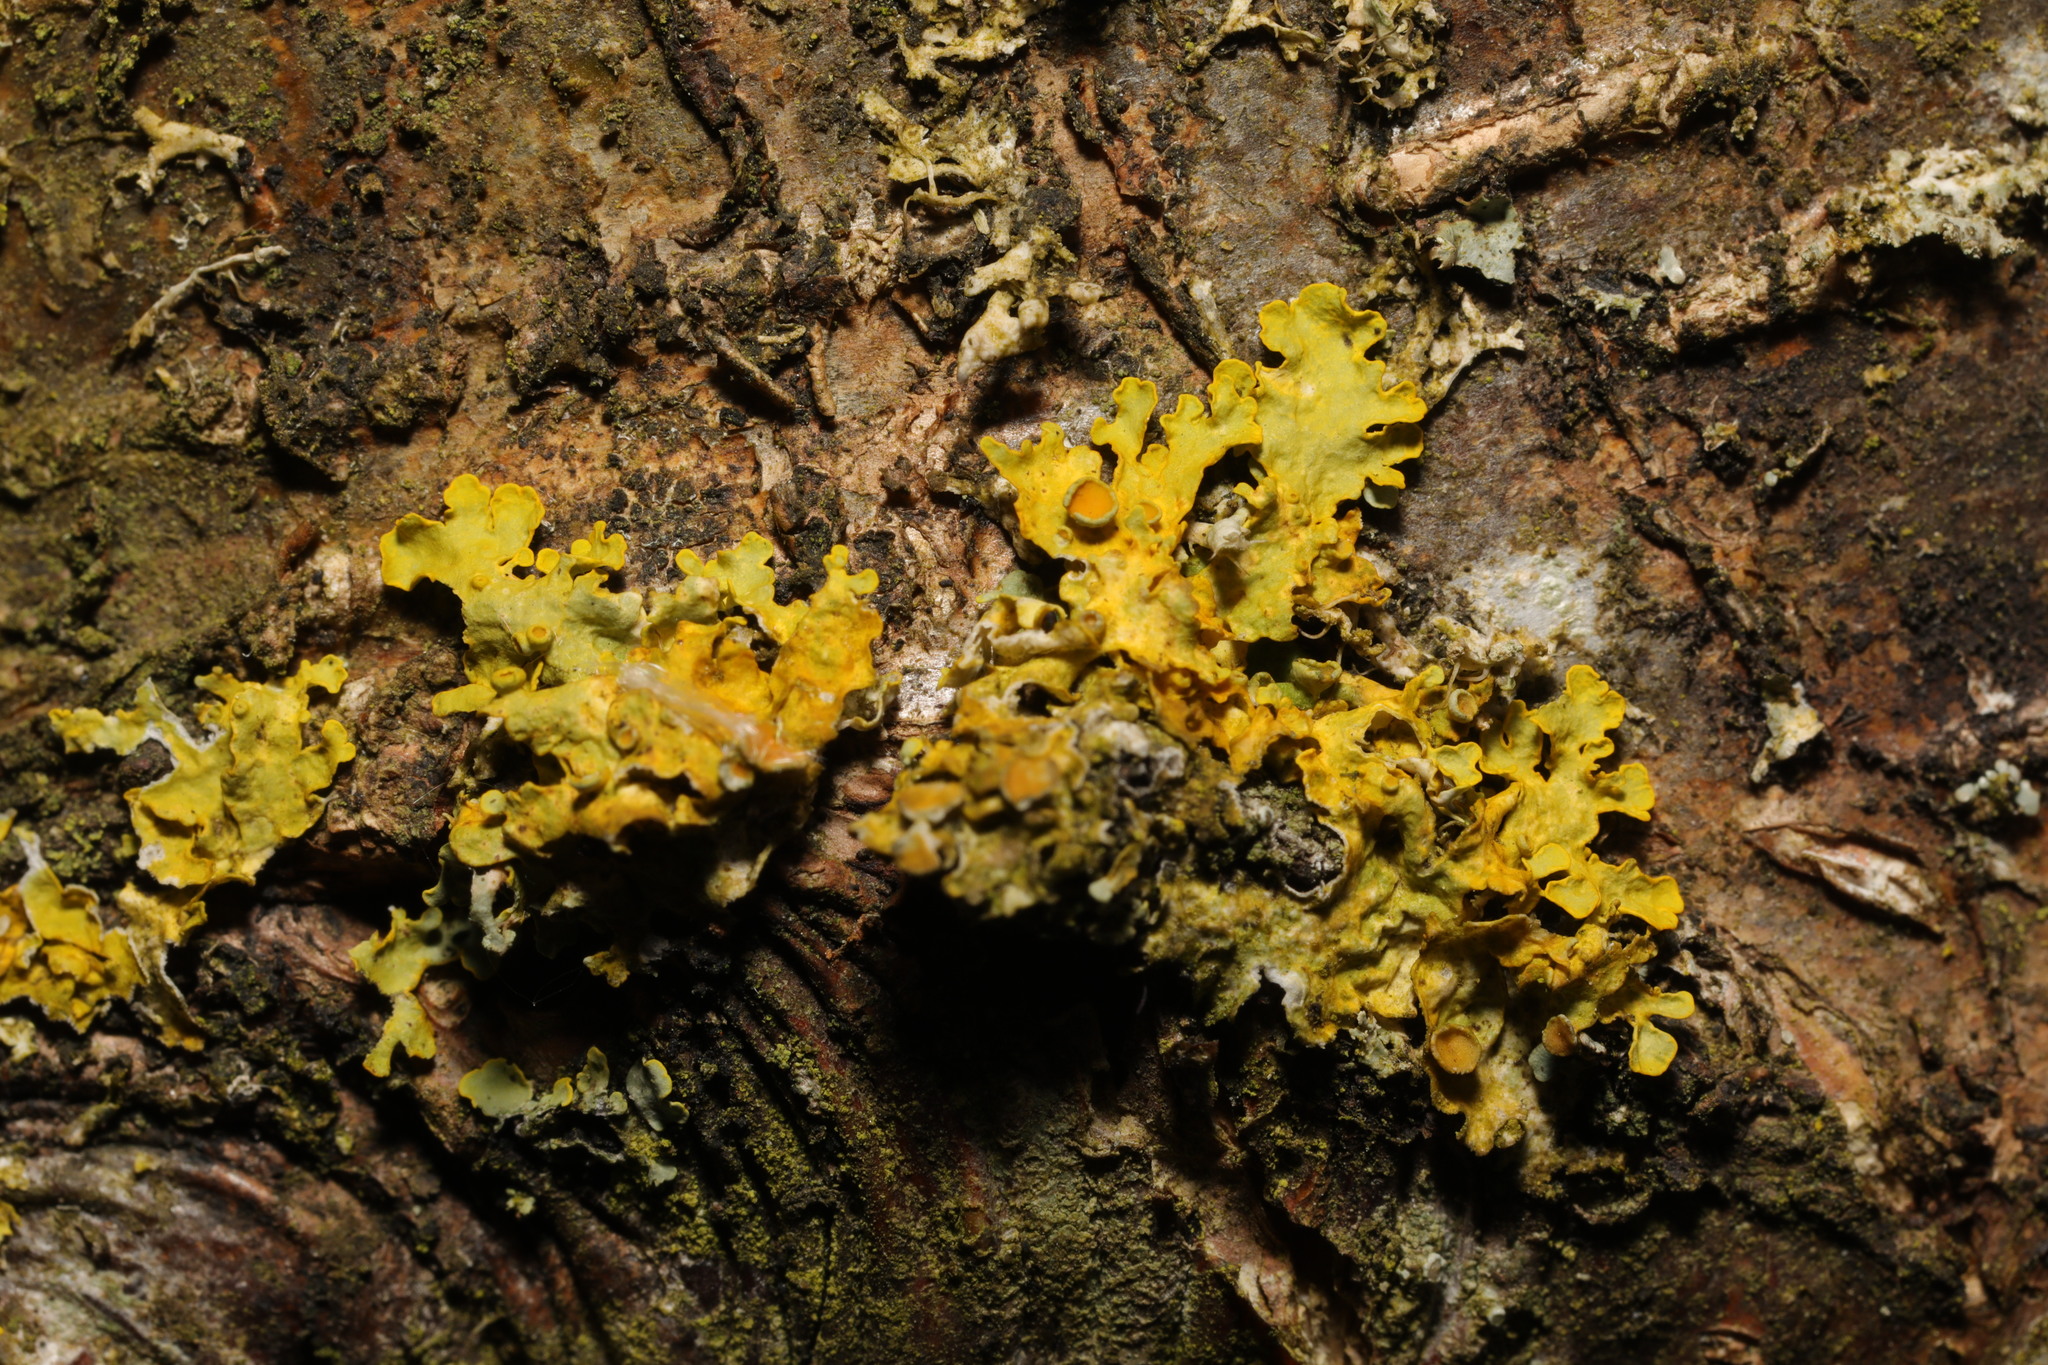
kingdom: Fungi
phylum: Ascomycota
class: Lecanoromycetes
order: Teloschistales
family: Teloschistaceae
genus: Xanthoria
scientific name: Xanthoria parietina
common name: Common orange lichen
